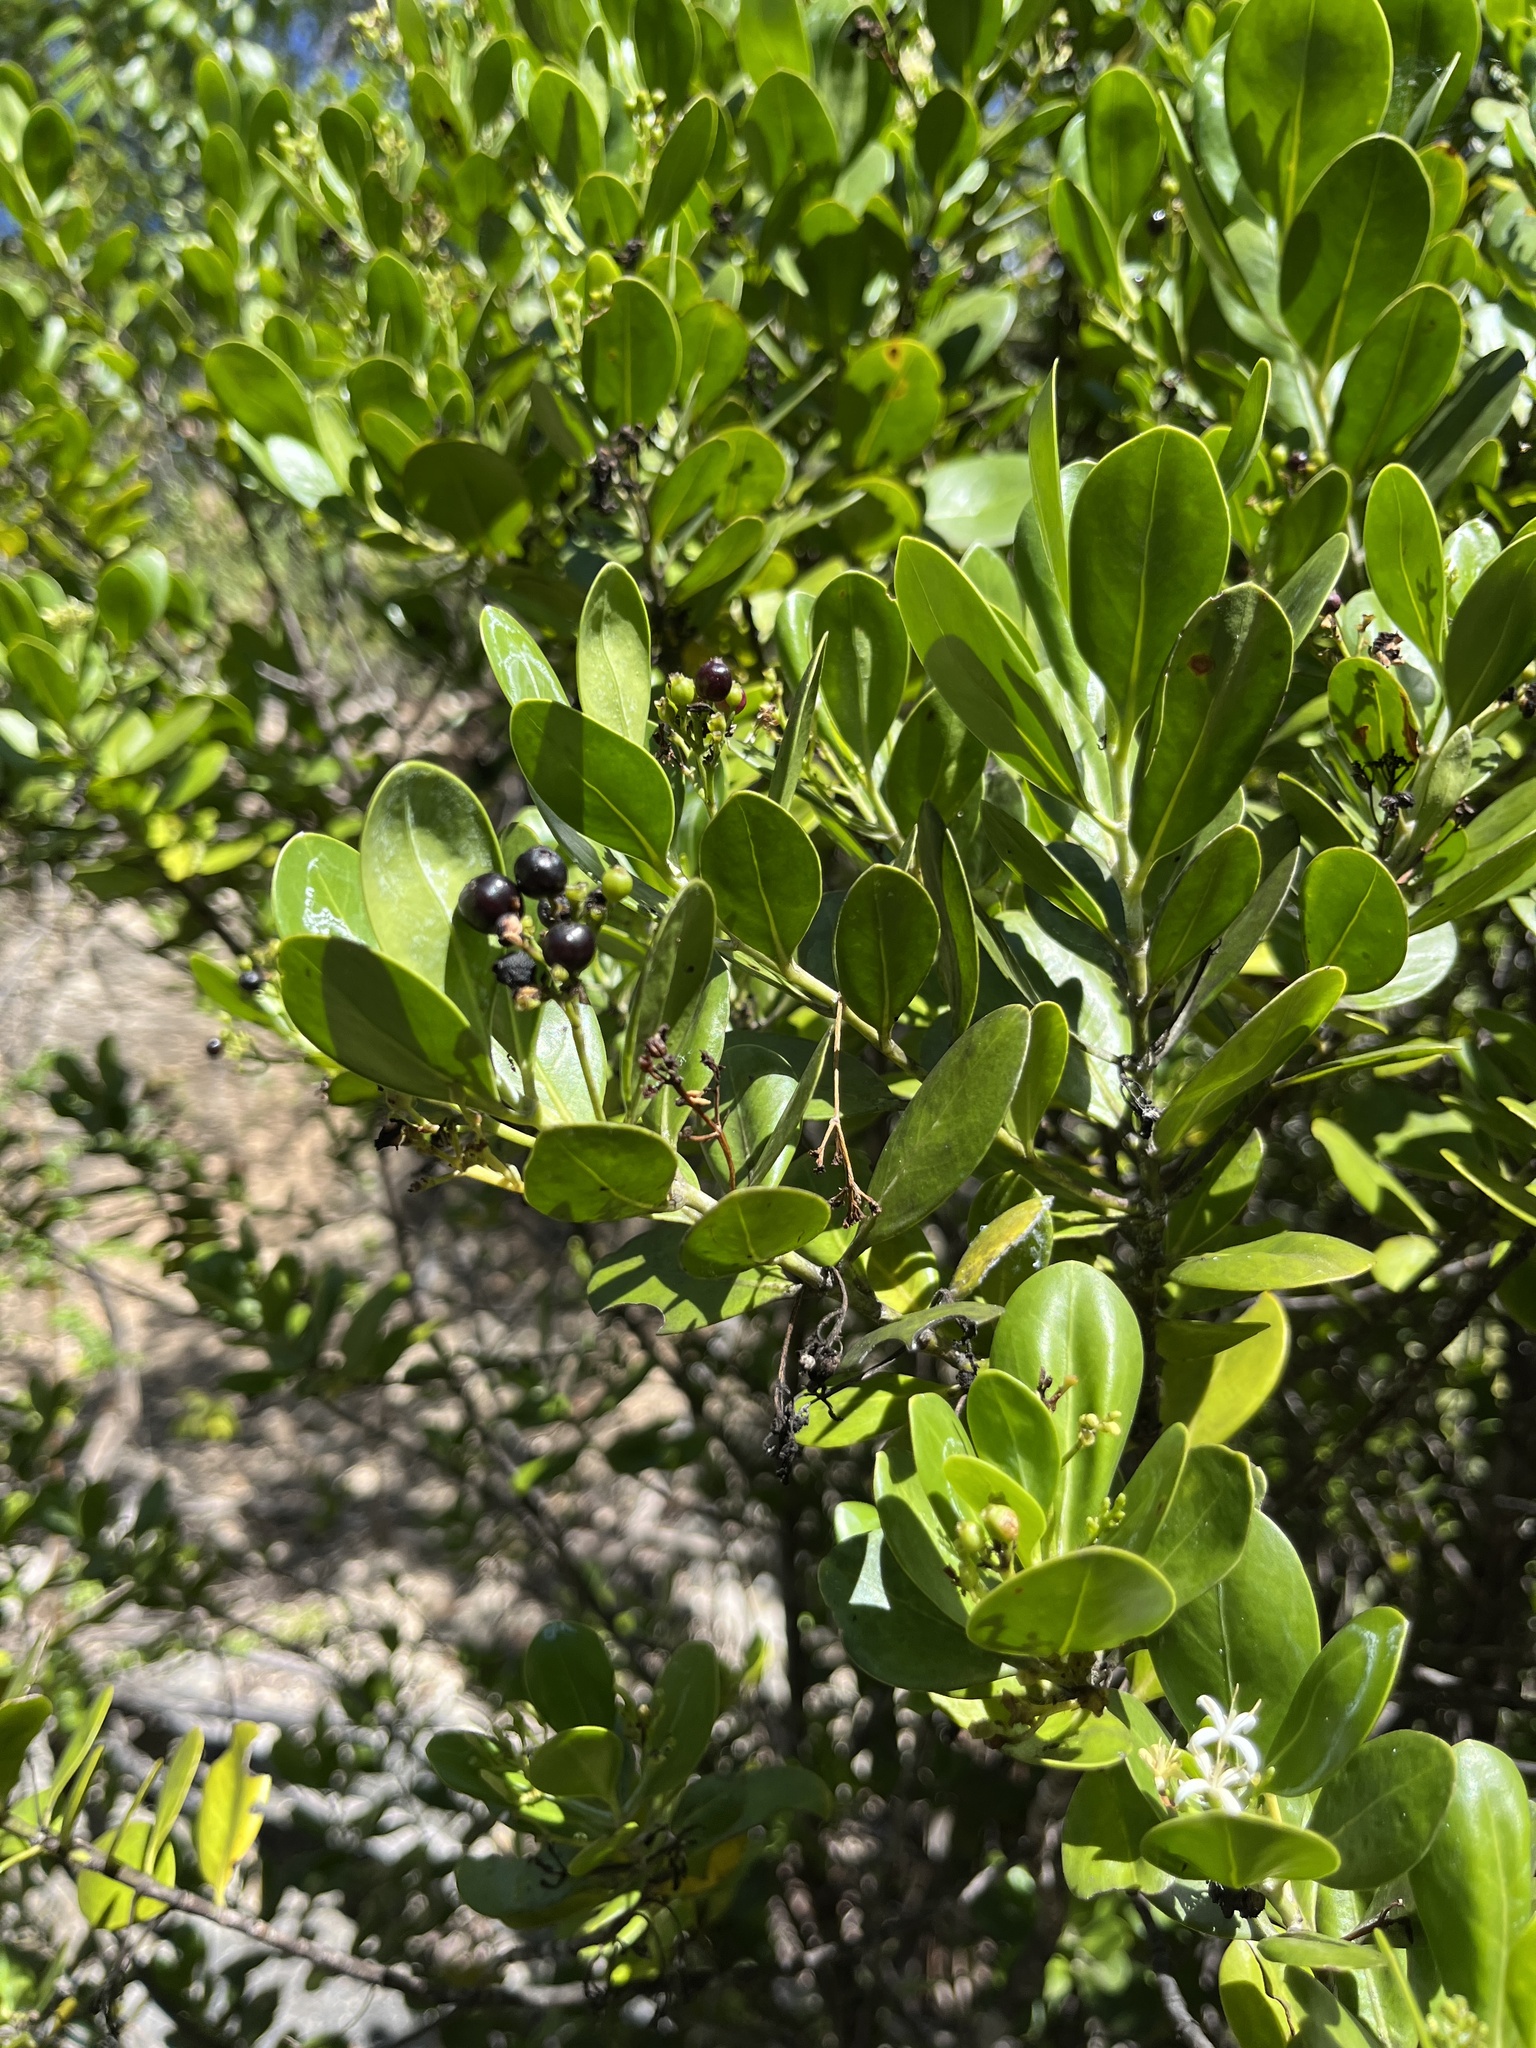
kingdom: Plantae
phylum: Tracheophyta
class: Magnoliopsida
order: Gentianales
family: Rubiaceae
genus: Erithalis
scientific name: Erithalis fruticosa
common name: Candlewood
